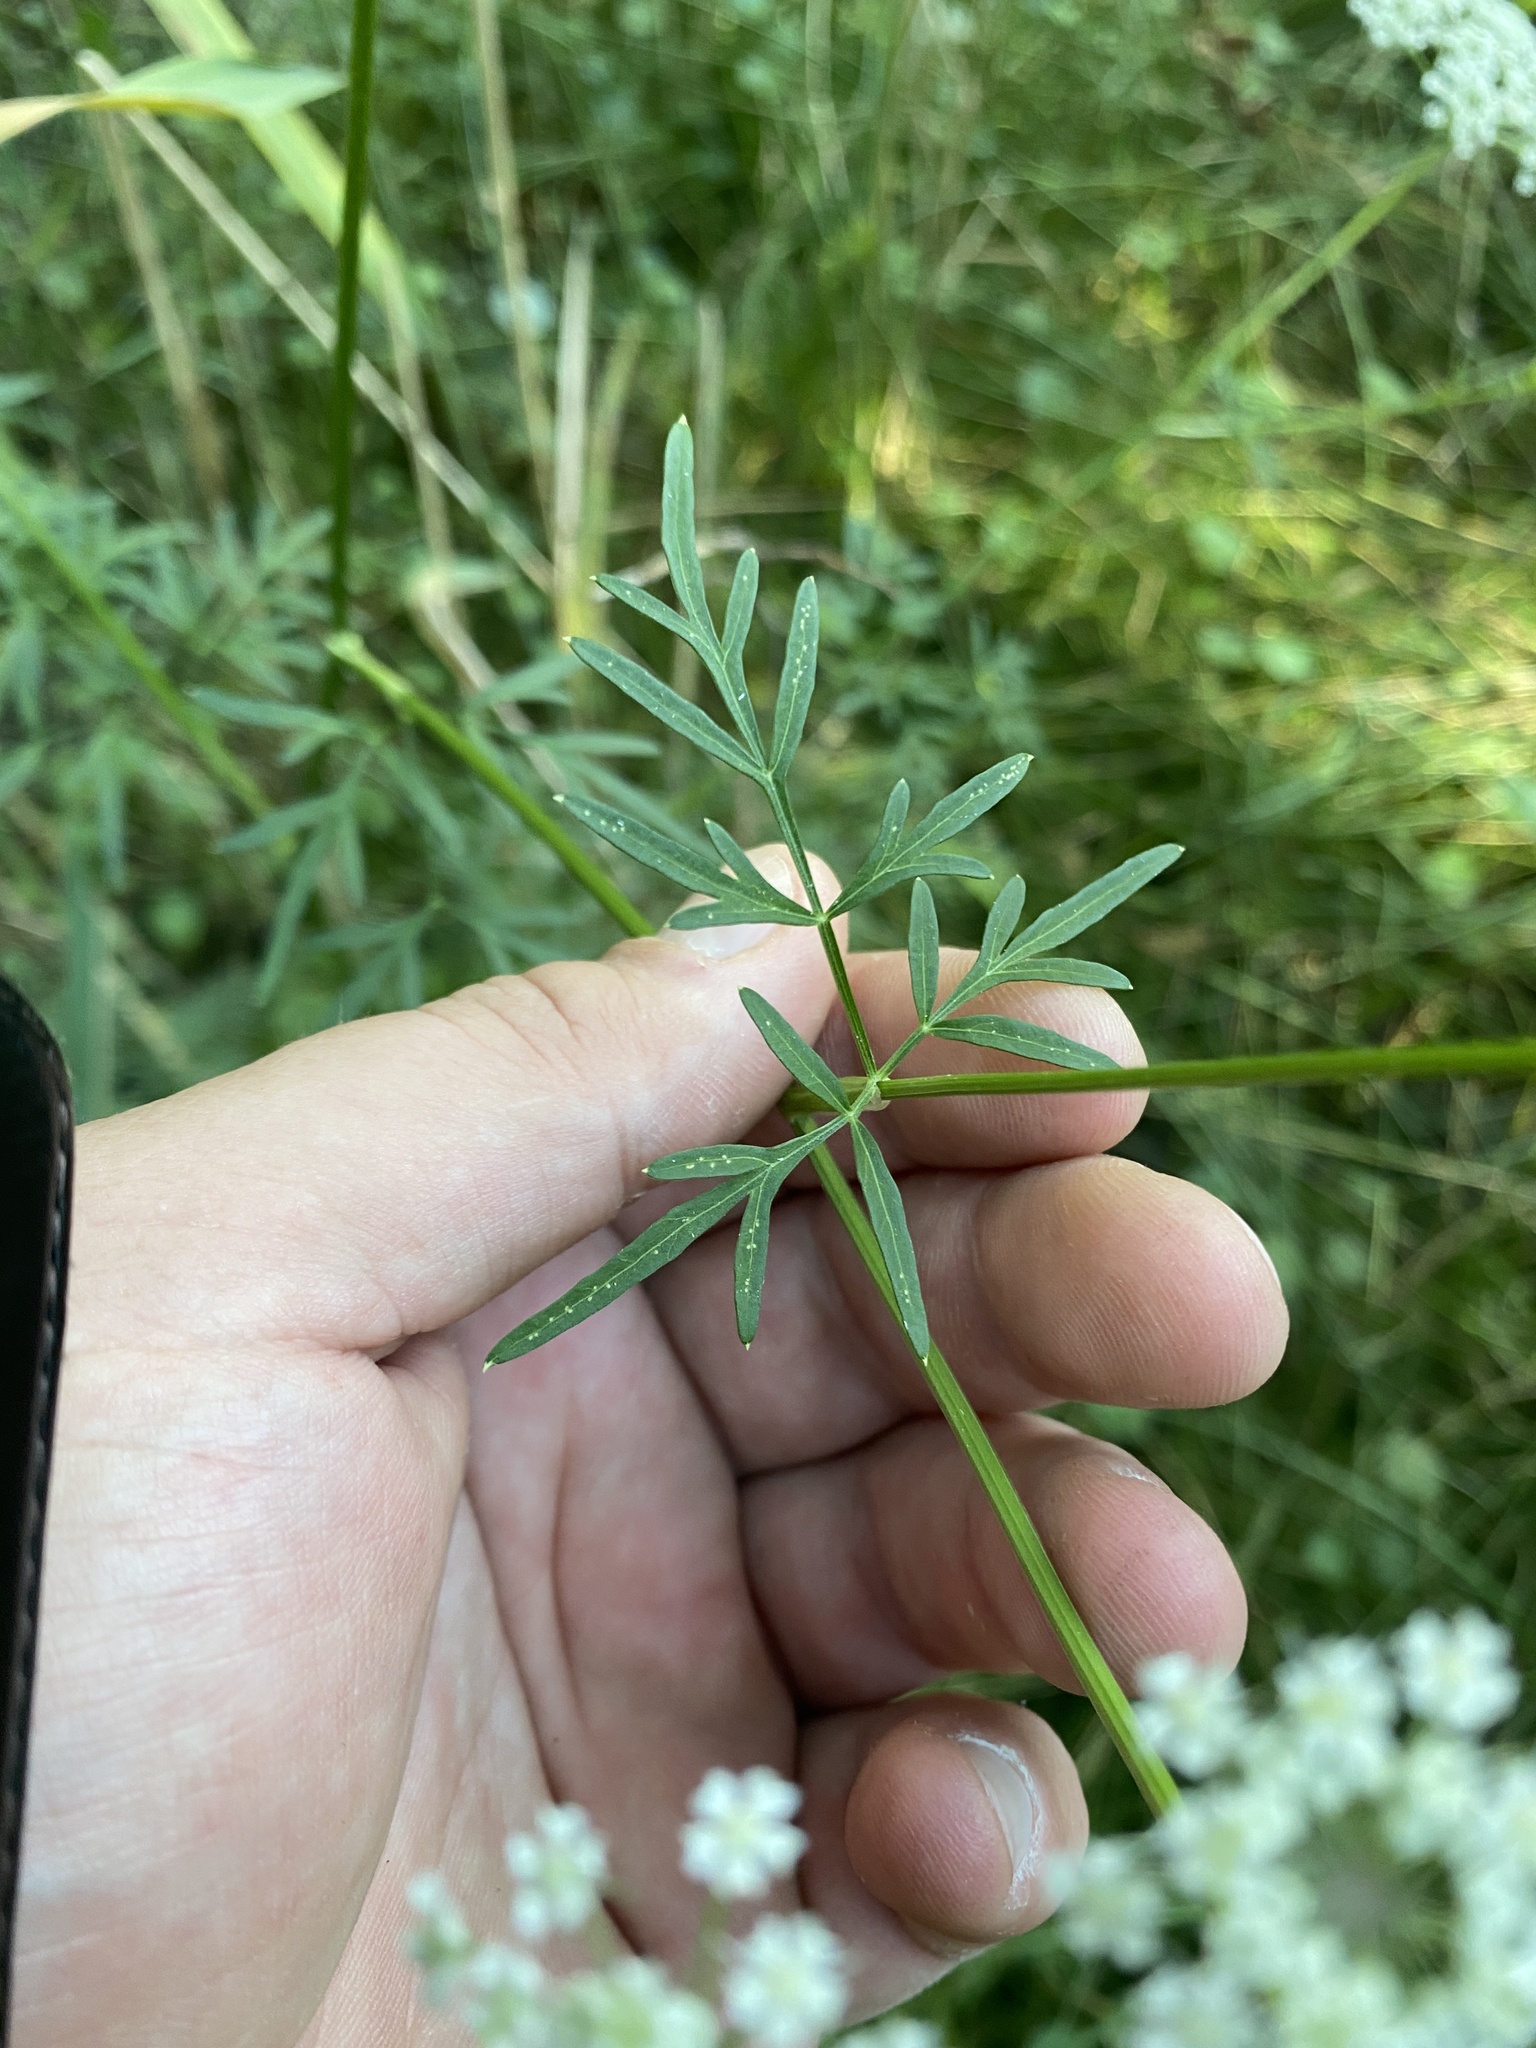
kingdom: Plantae
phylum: Tracheophyta
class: Magnoliopsida
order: Apiales
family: Apiaceae
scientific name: Apiaceae
